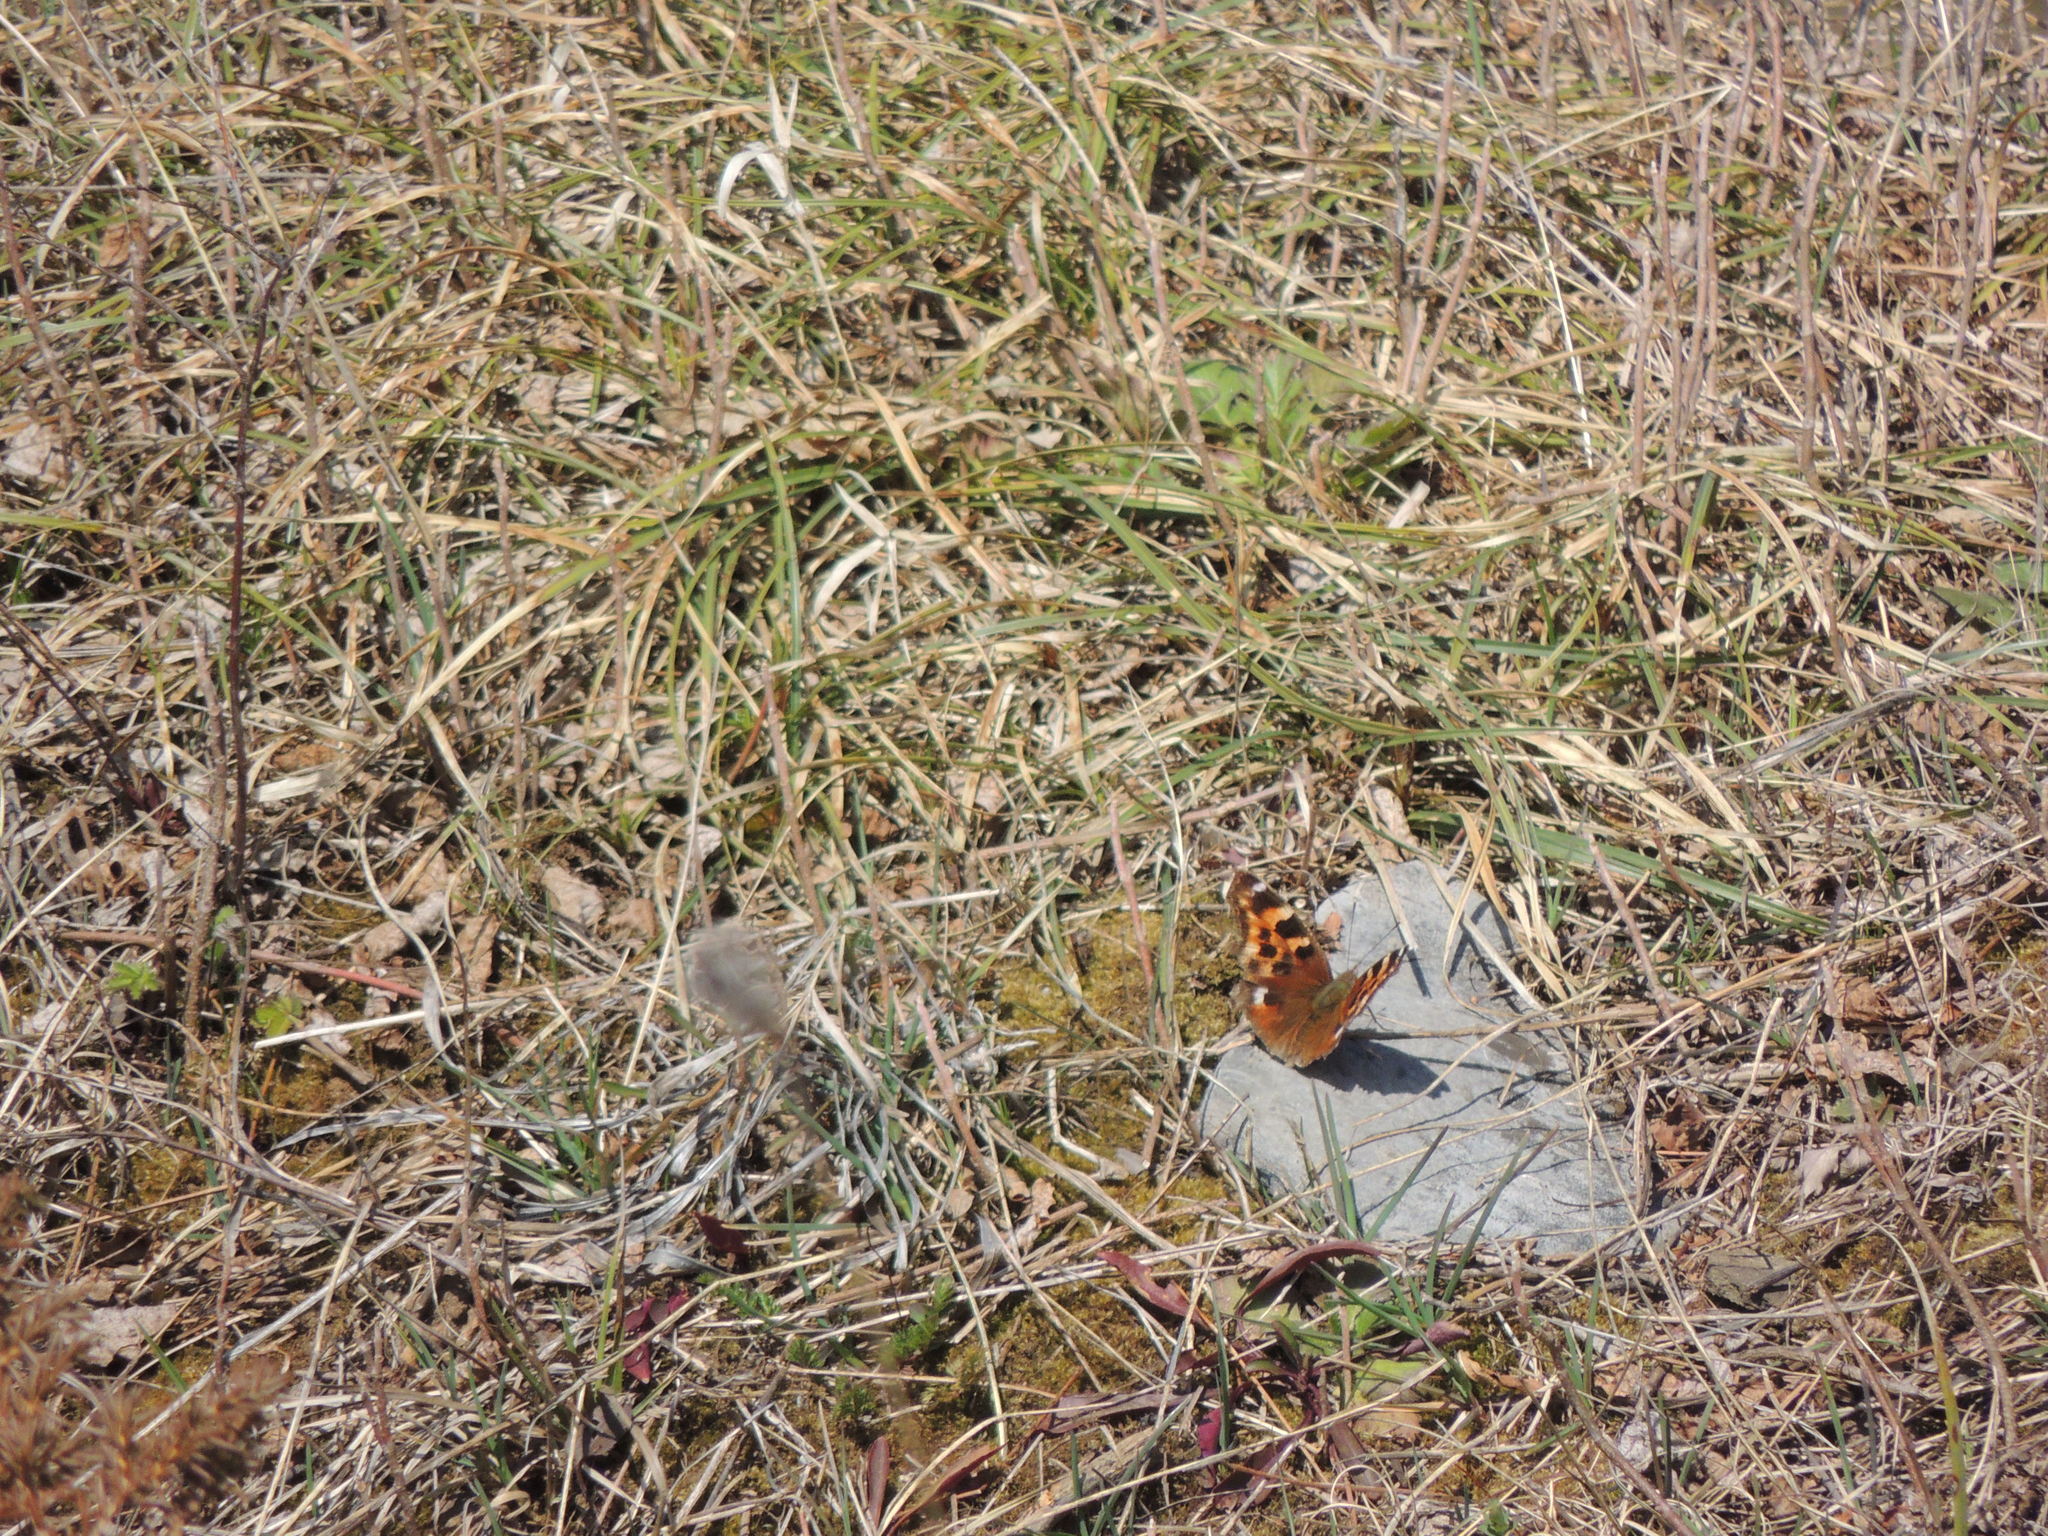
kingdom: Animalia
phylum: Arthropoda
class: Insecta
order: Lepidoptera
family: Nymphalidae
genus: Polygonia
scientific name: Polygonia vaualbum
